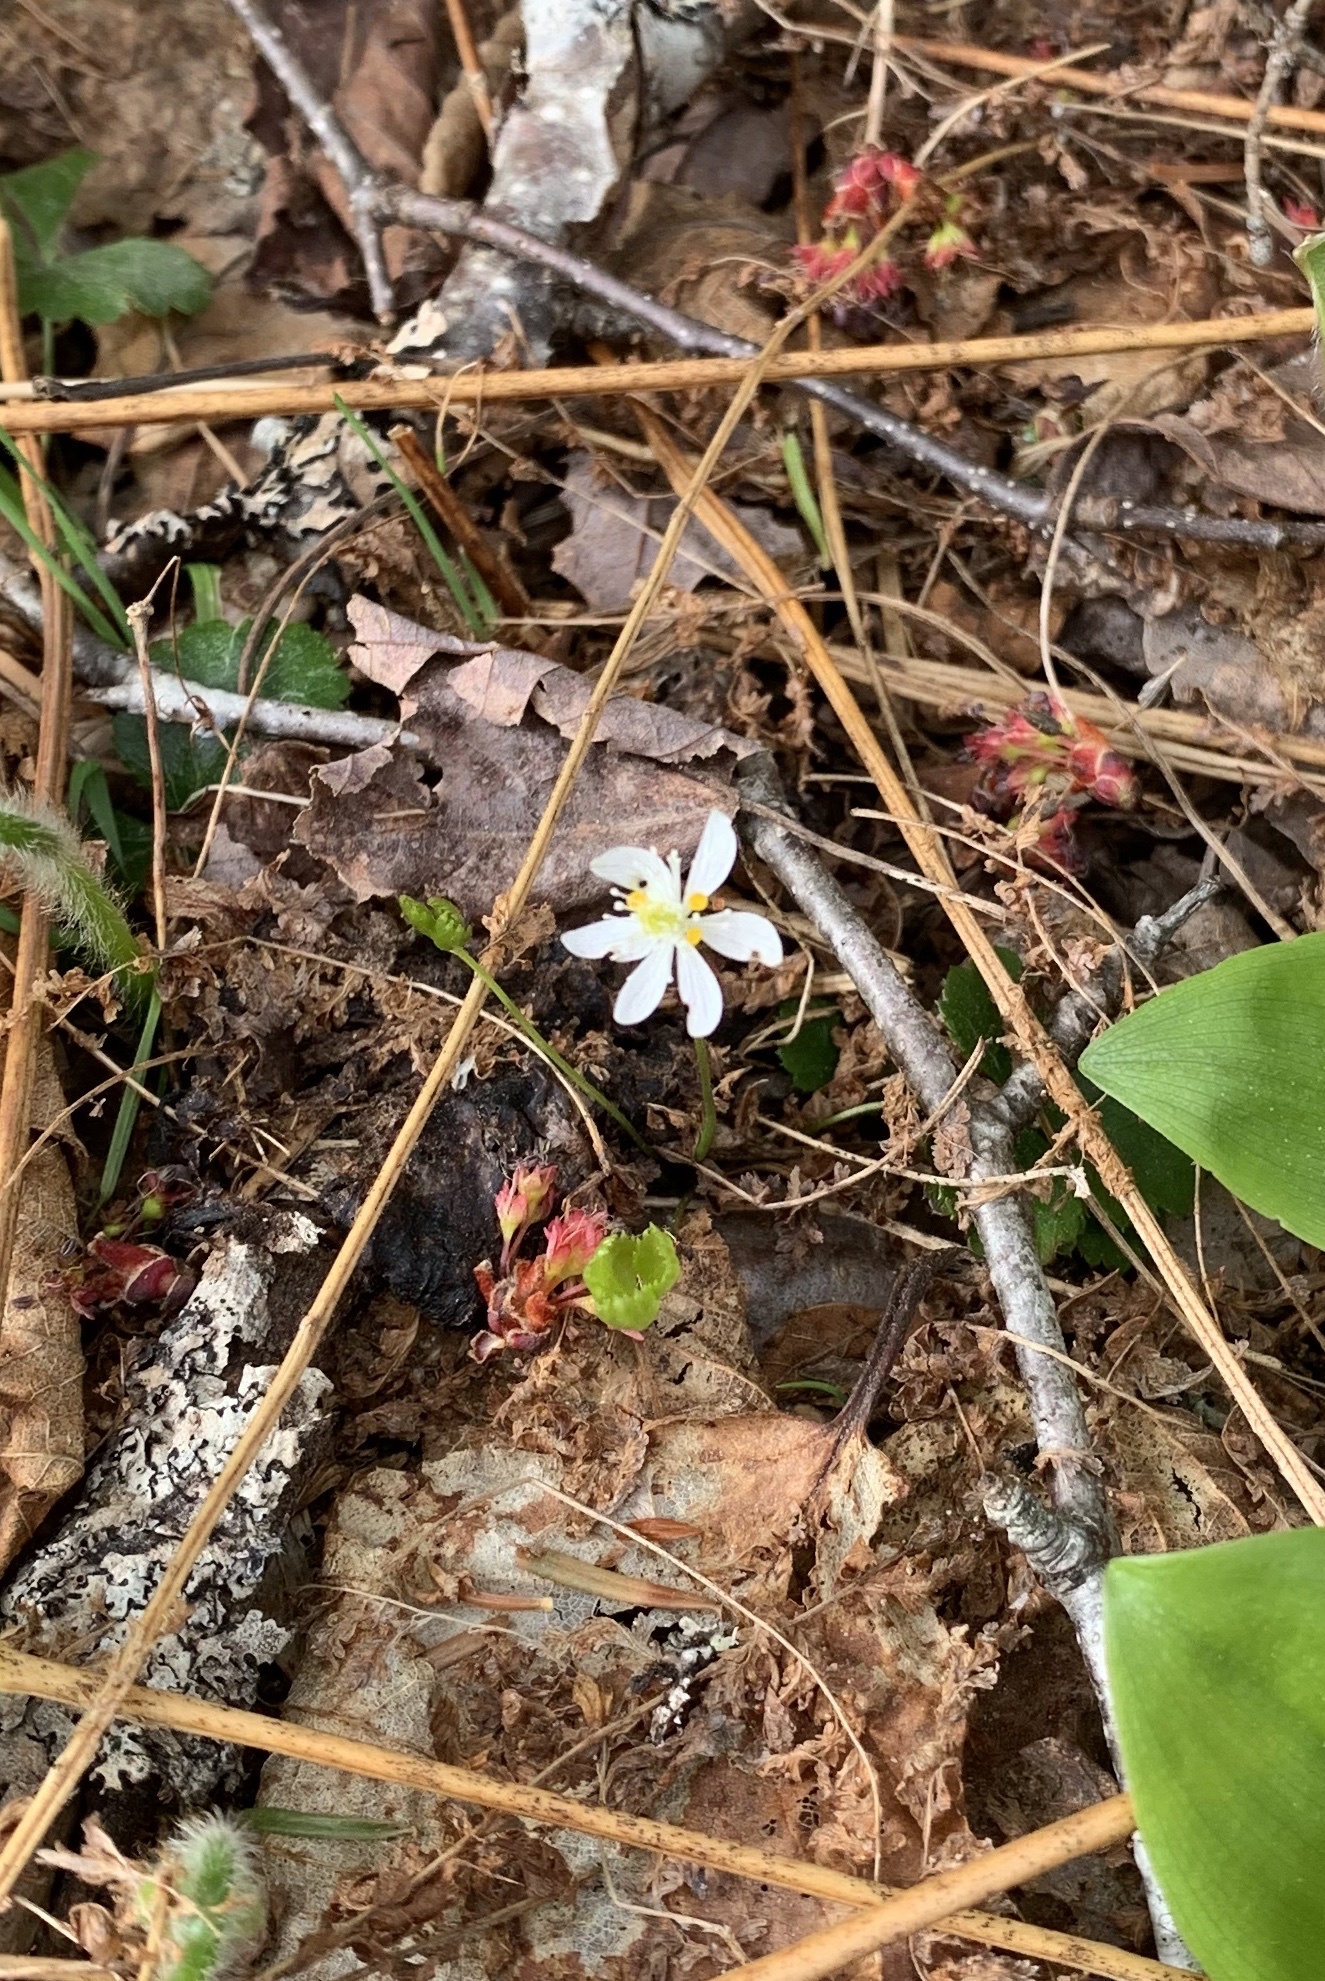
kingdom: Plantae
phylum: Tracheophyta
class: Magnoliopsida
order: Ranunculales
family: Ranunculaceae
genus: Coptis
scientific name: Coptis trifolia
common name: Canker-root
